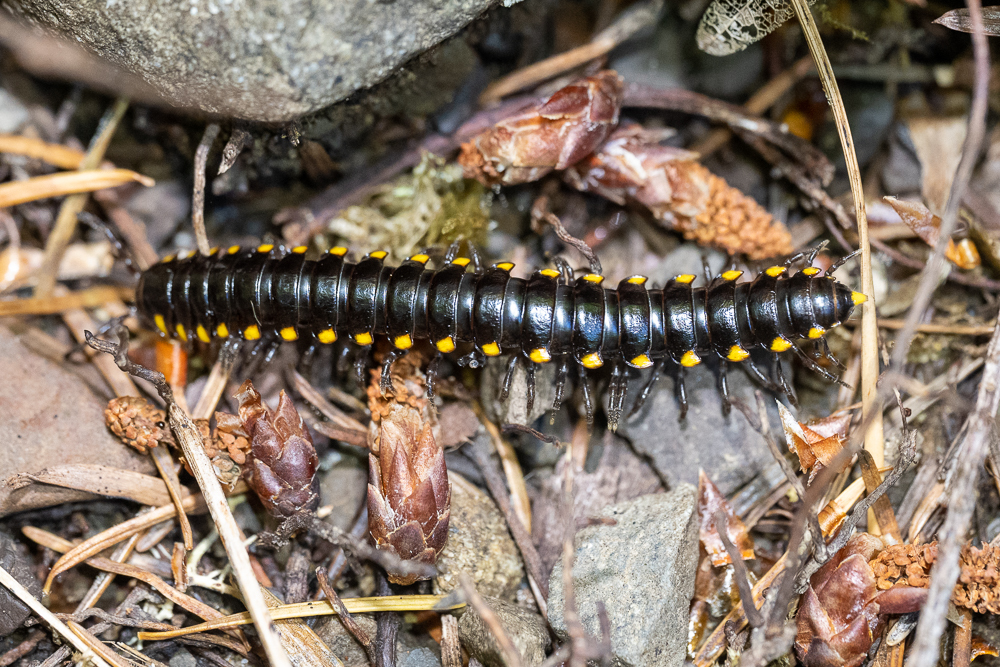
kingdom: Animalia
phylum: Arthropoda
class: Diplopoda
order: Polydesmida
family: Xystodesmidae
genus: Harpaphe
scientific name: Harpaphe haydeniana
